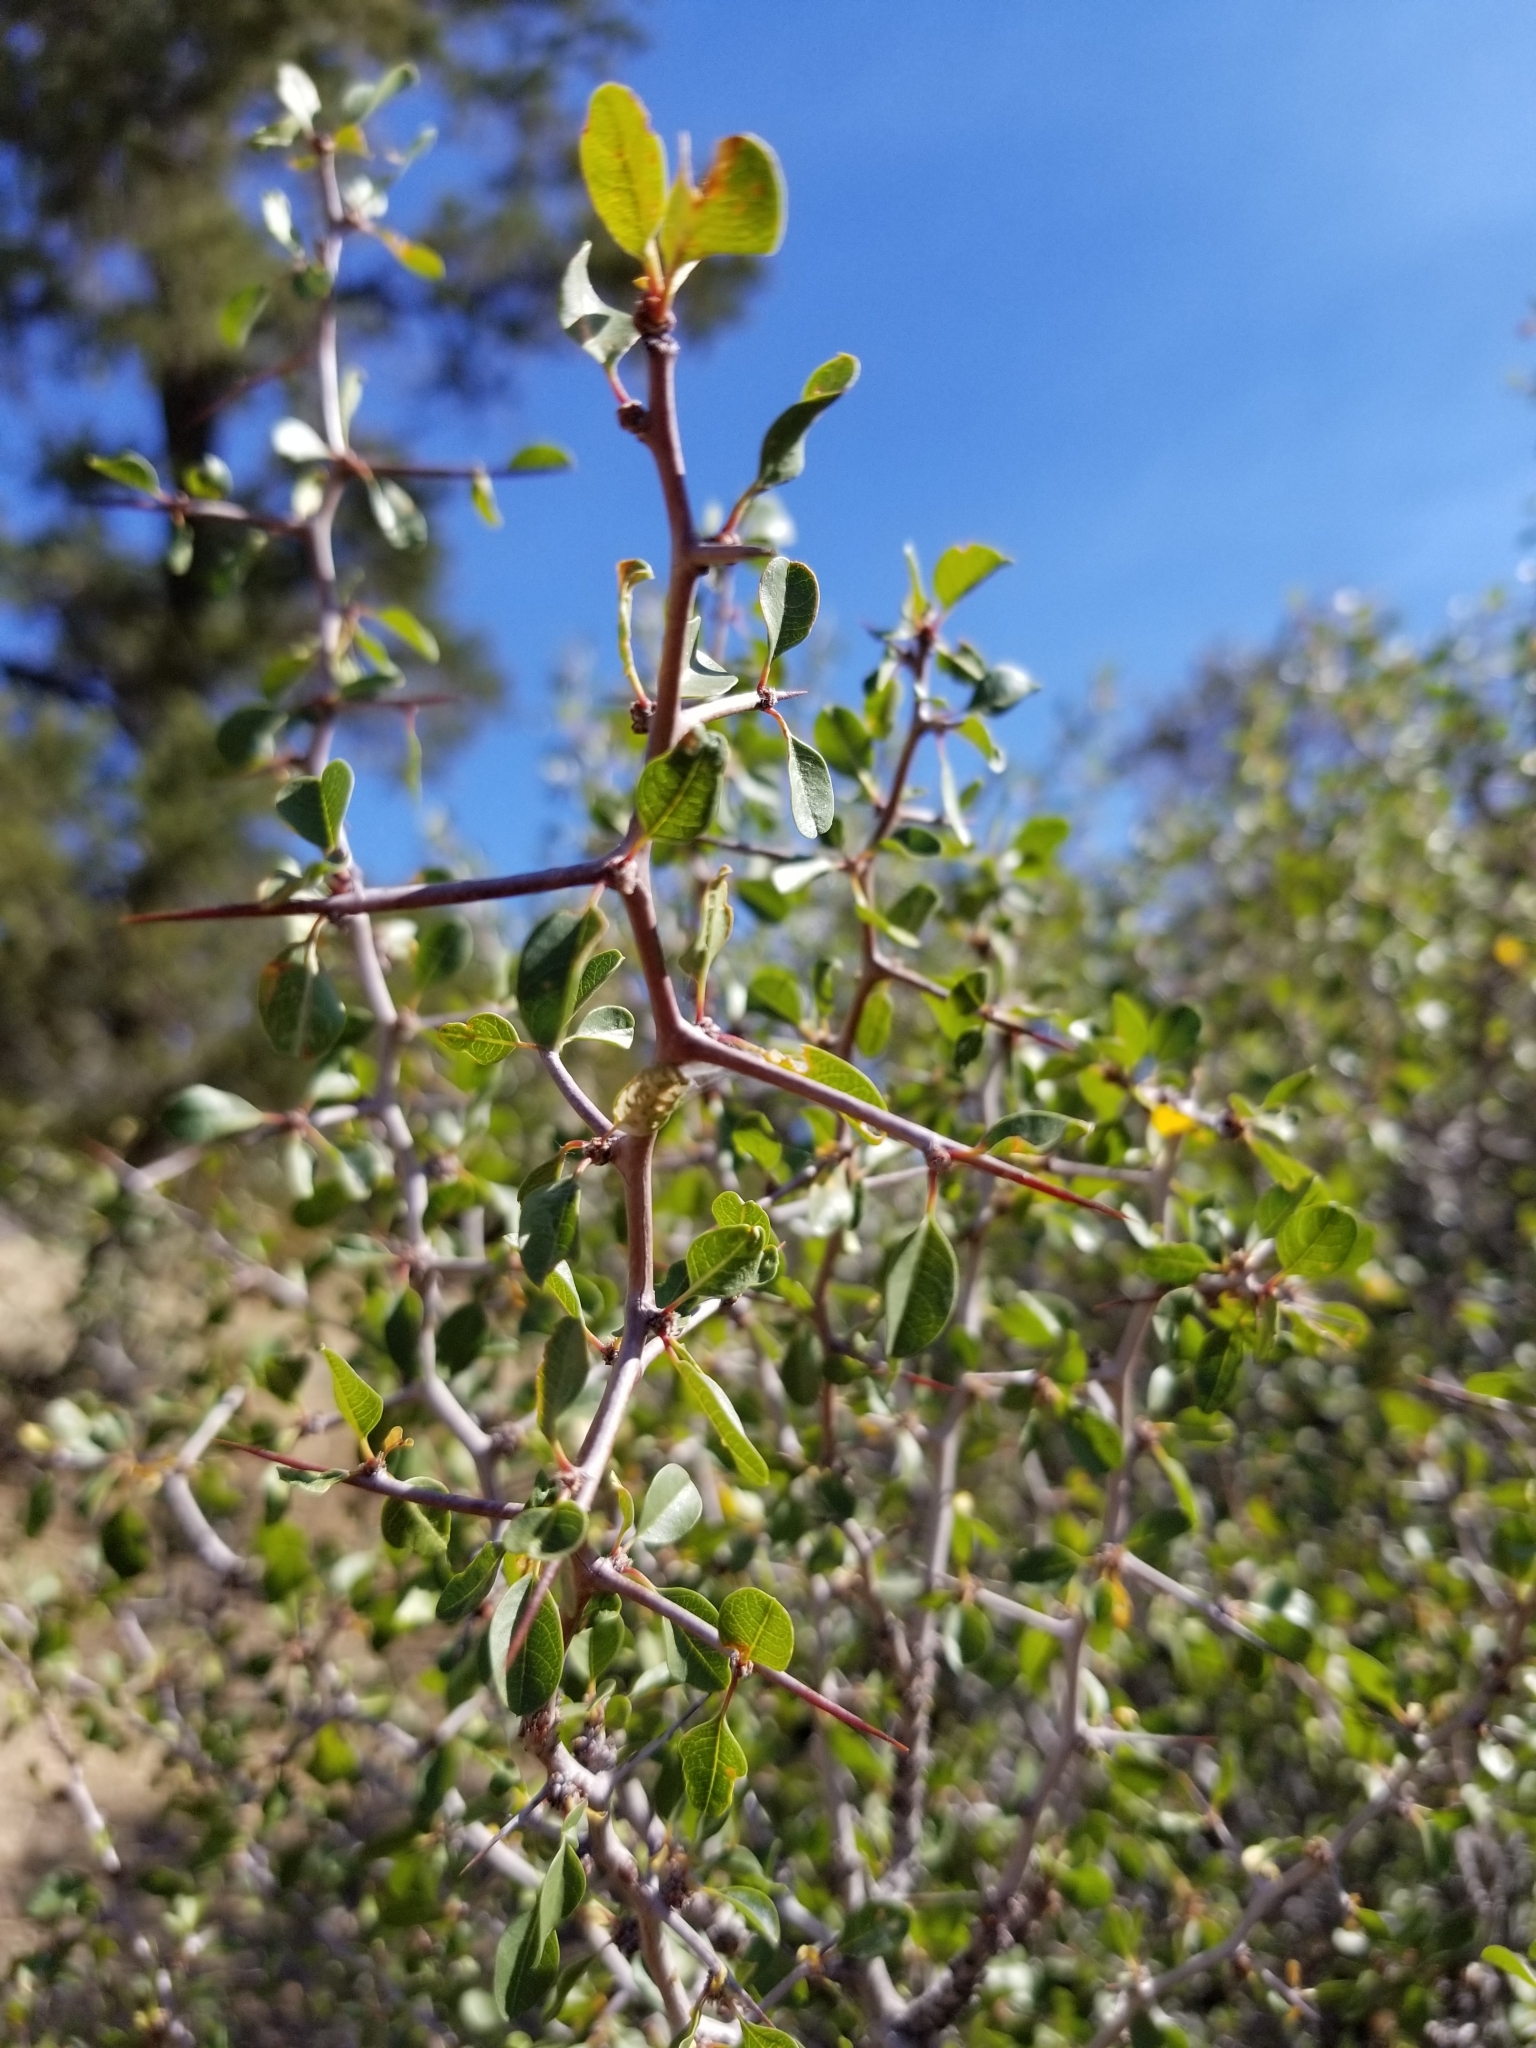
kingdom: Plantae
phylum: Tracheophyta
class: Magnoliopsida
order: Rosales
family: Rhamnaceae
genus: Pseudoziziphus
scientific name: Pseudoziziphus parryi
